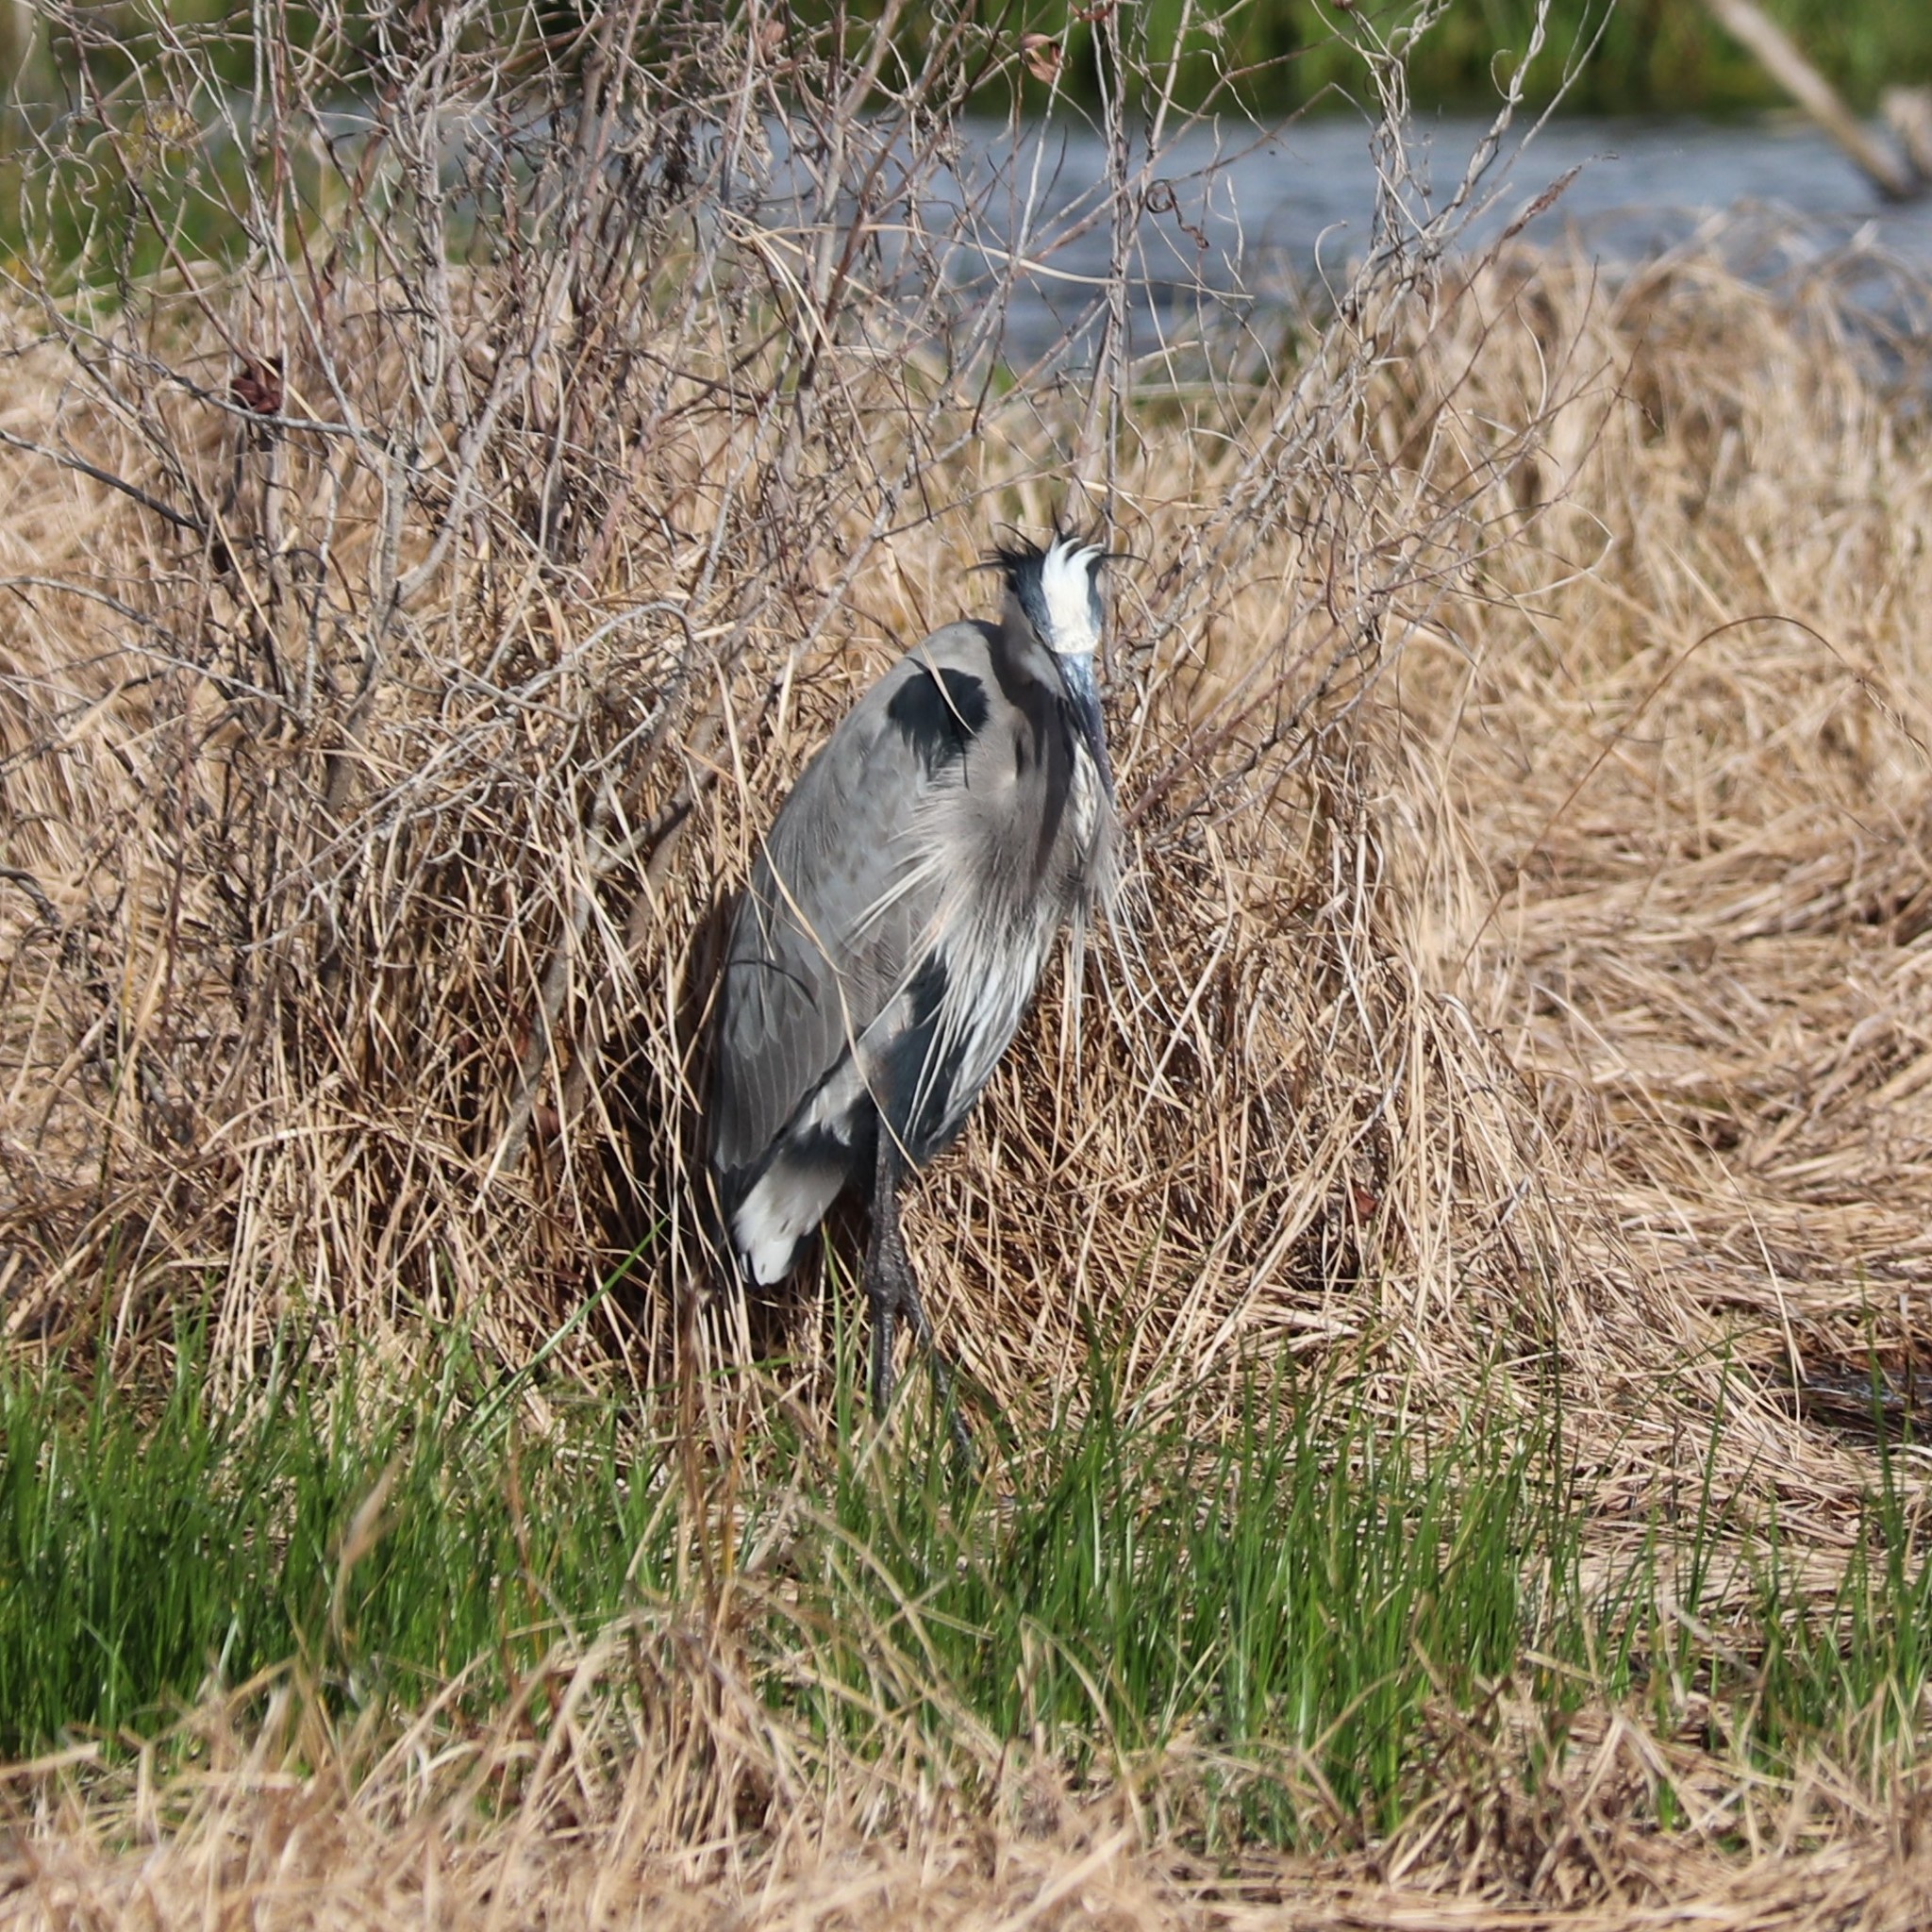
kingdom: Animalia
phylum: Chordata
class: Aves
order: Pelecaniformes
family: Ardeidae
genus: Ardea
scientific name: Ardea herodias
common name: Great blue heron
